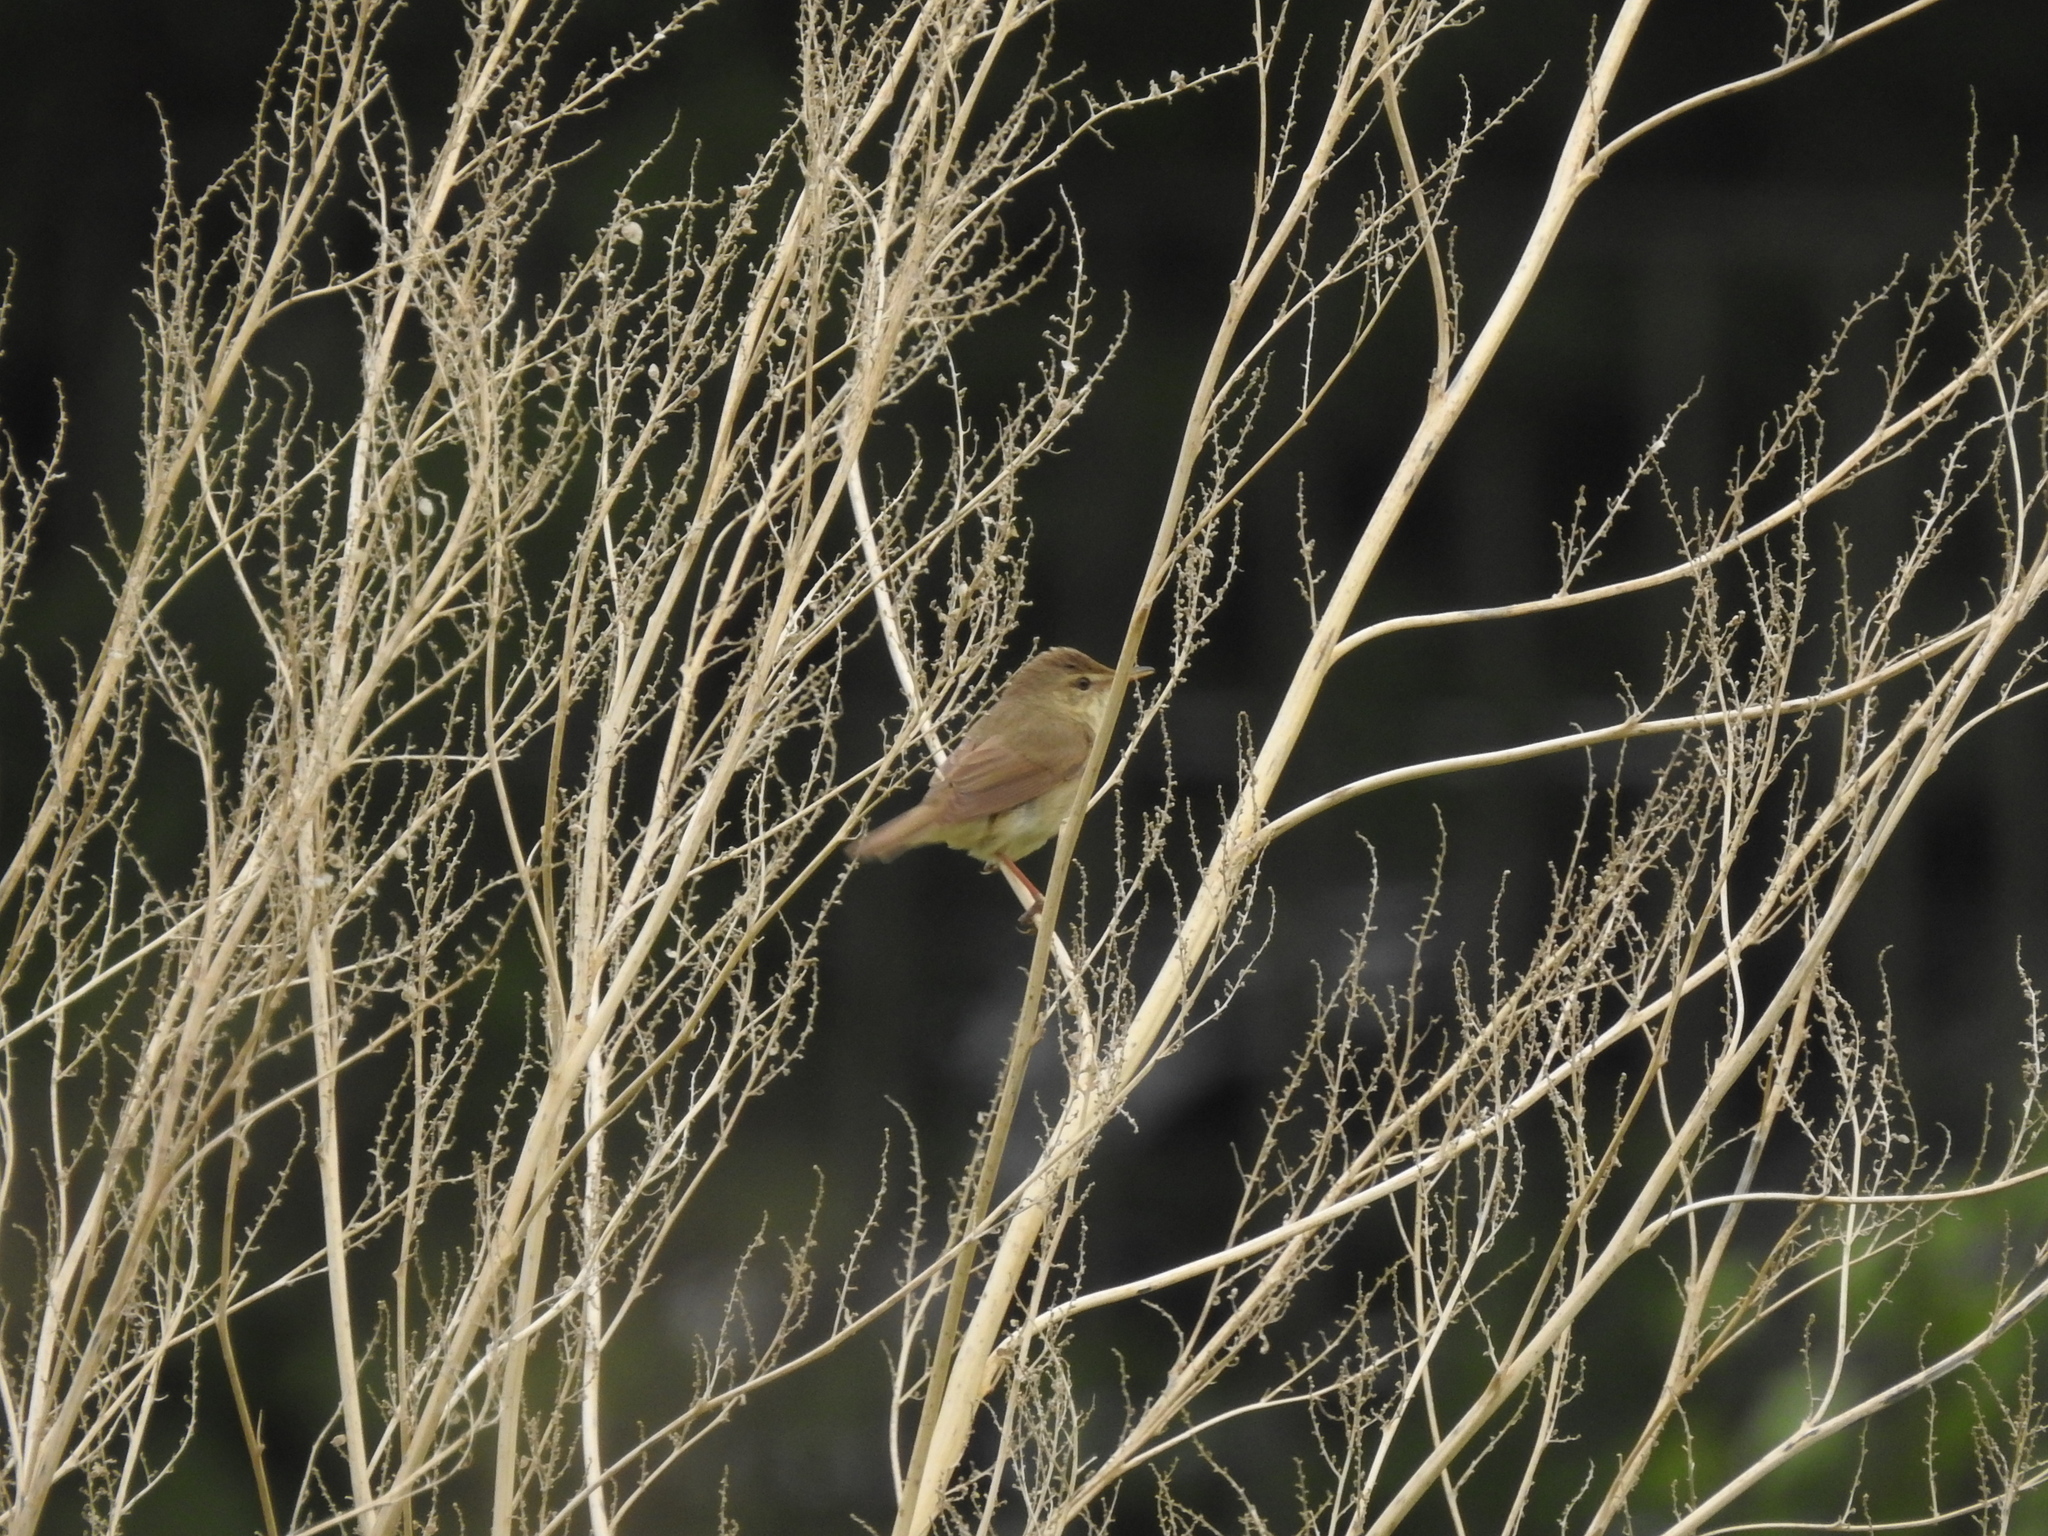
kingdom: Animalia
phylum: Chordata
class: Aves
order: Passeriformes
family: Acrocephalidae
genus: Acrocephalus
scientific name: Acrocephalus dumetorum
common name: Blyth's reed warbler
